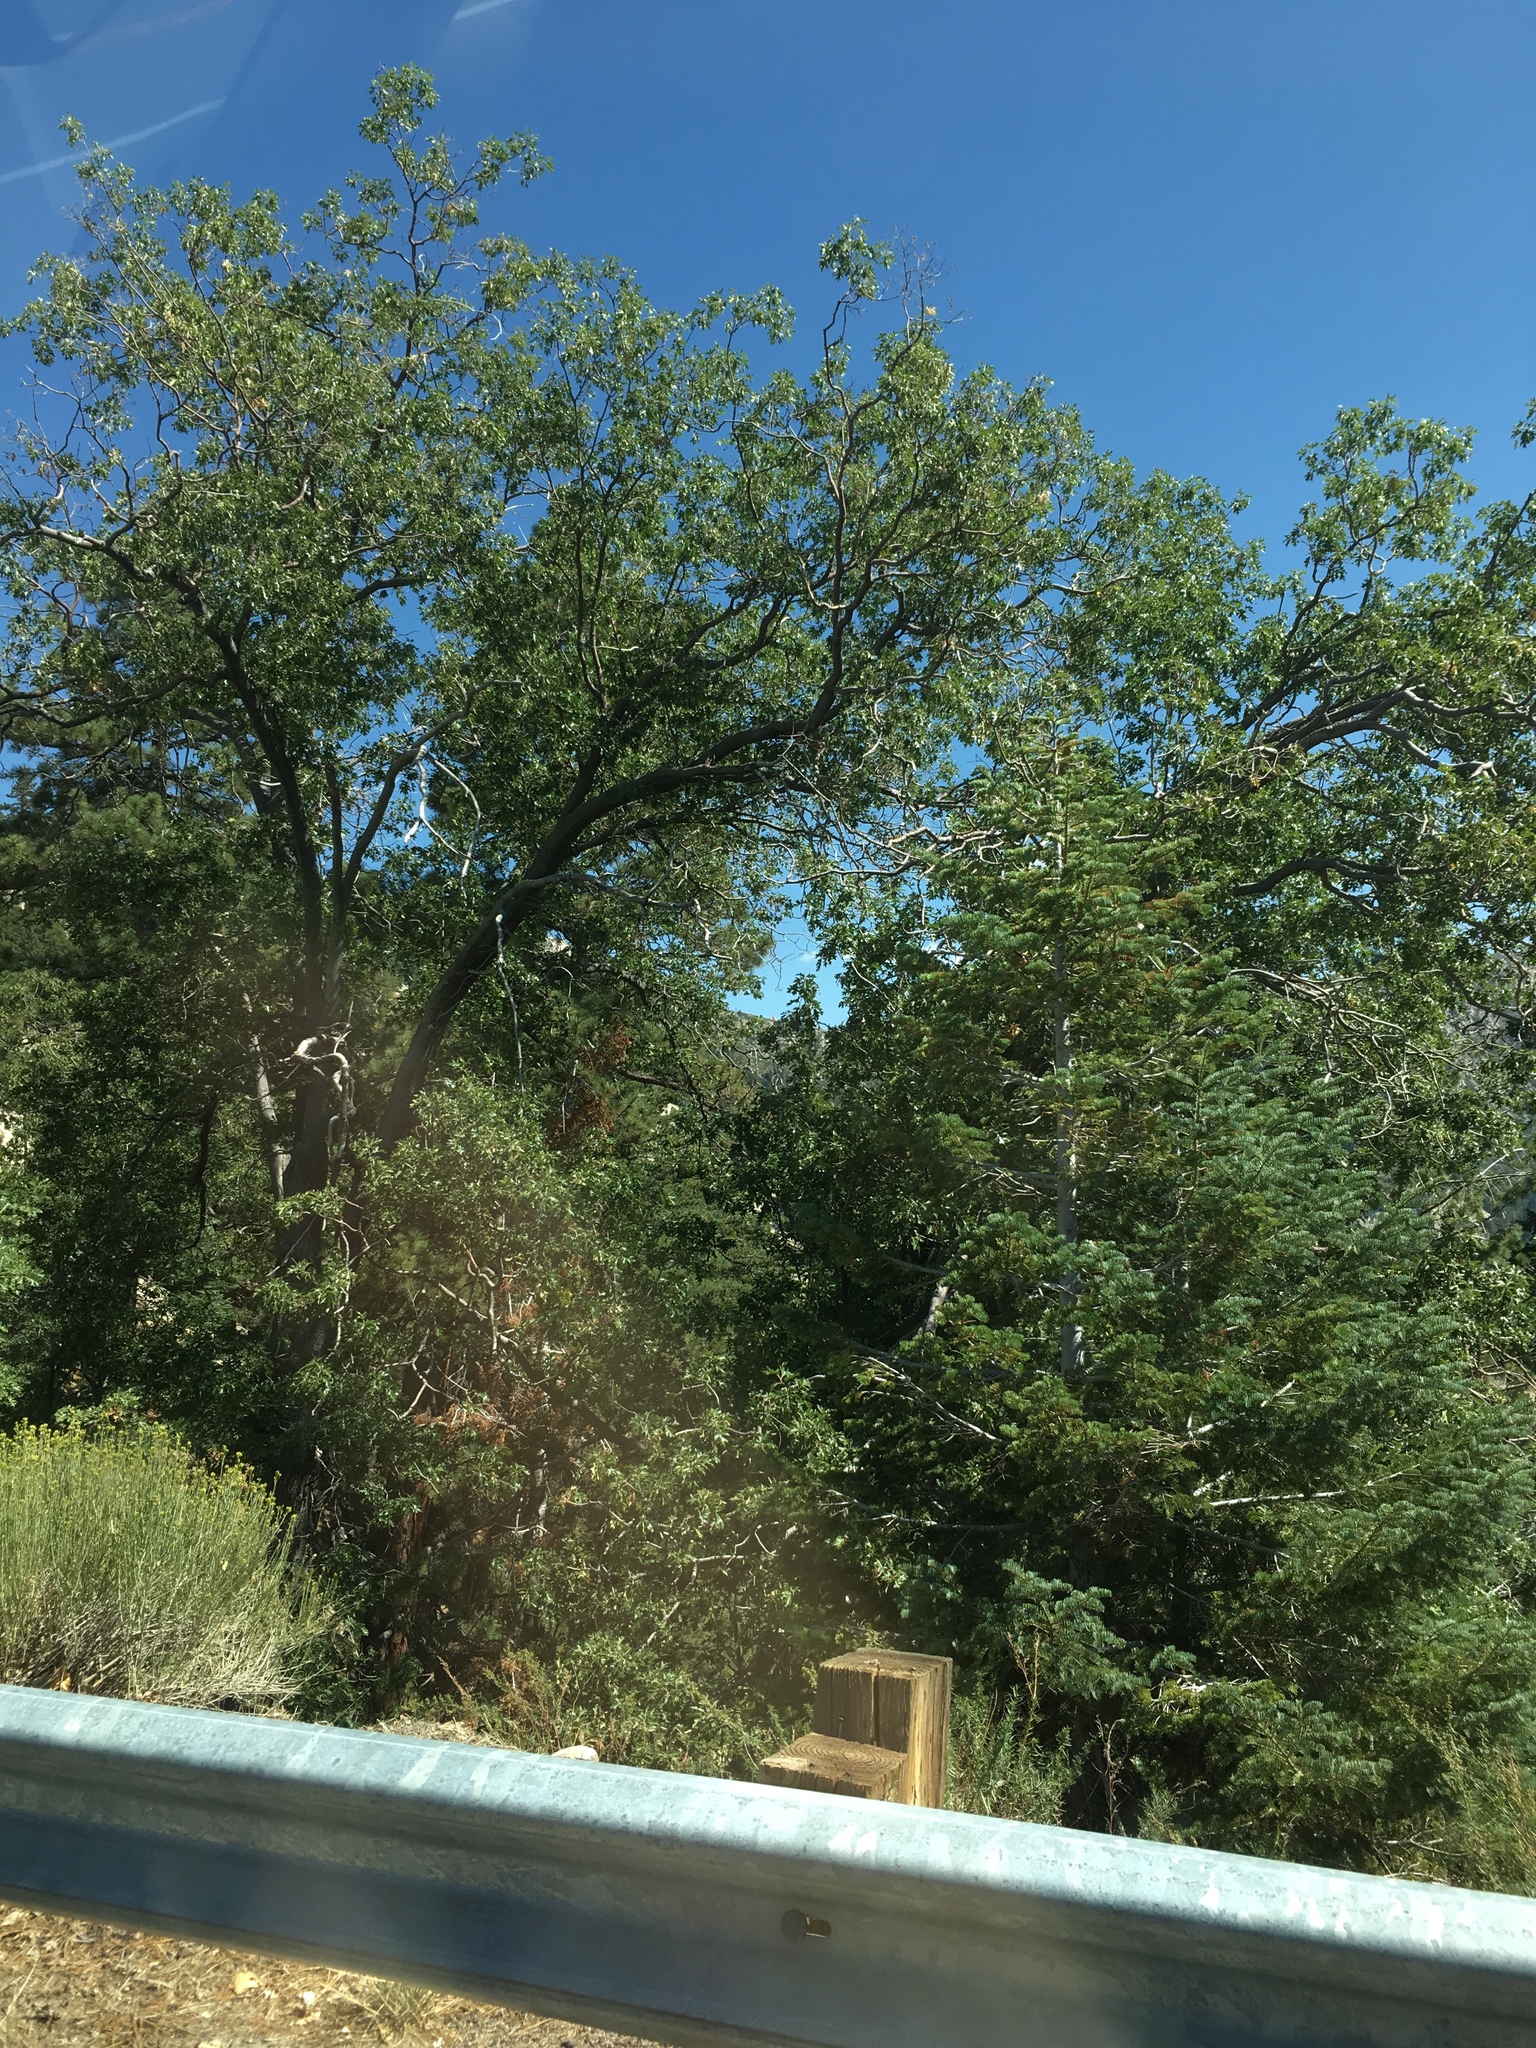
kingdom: Plantae
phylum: Tracheophyta
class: Magnoliopsida
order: Fagales
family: Fagaceae
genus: Quercus
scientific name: Quercus kelloggii
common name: California black oak
